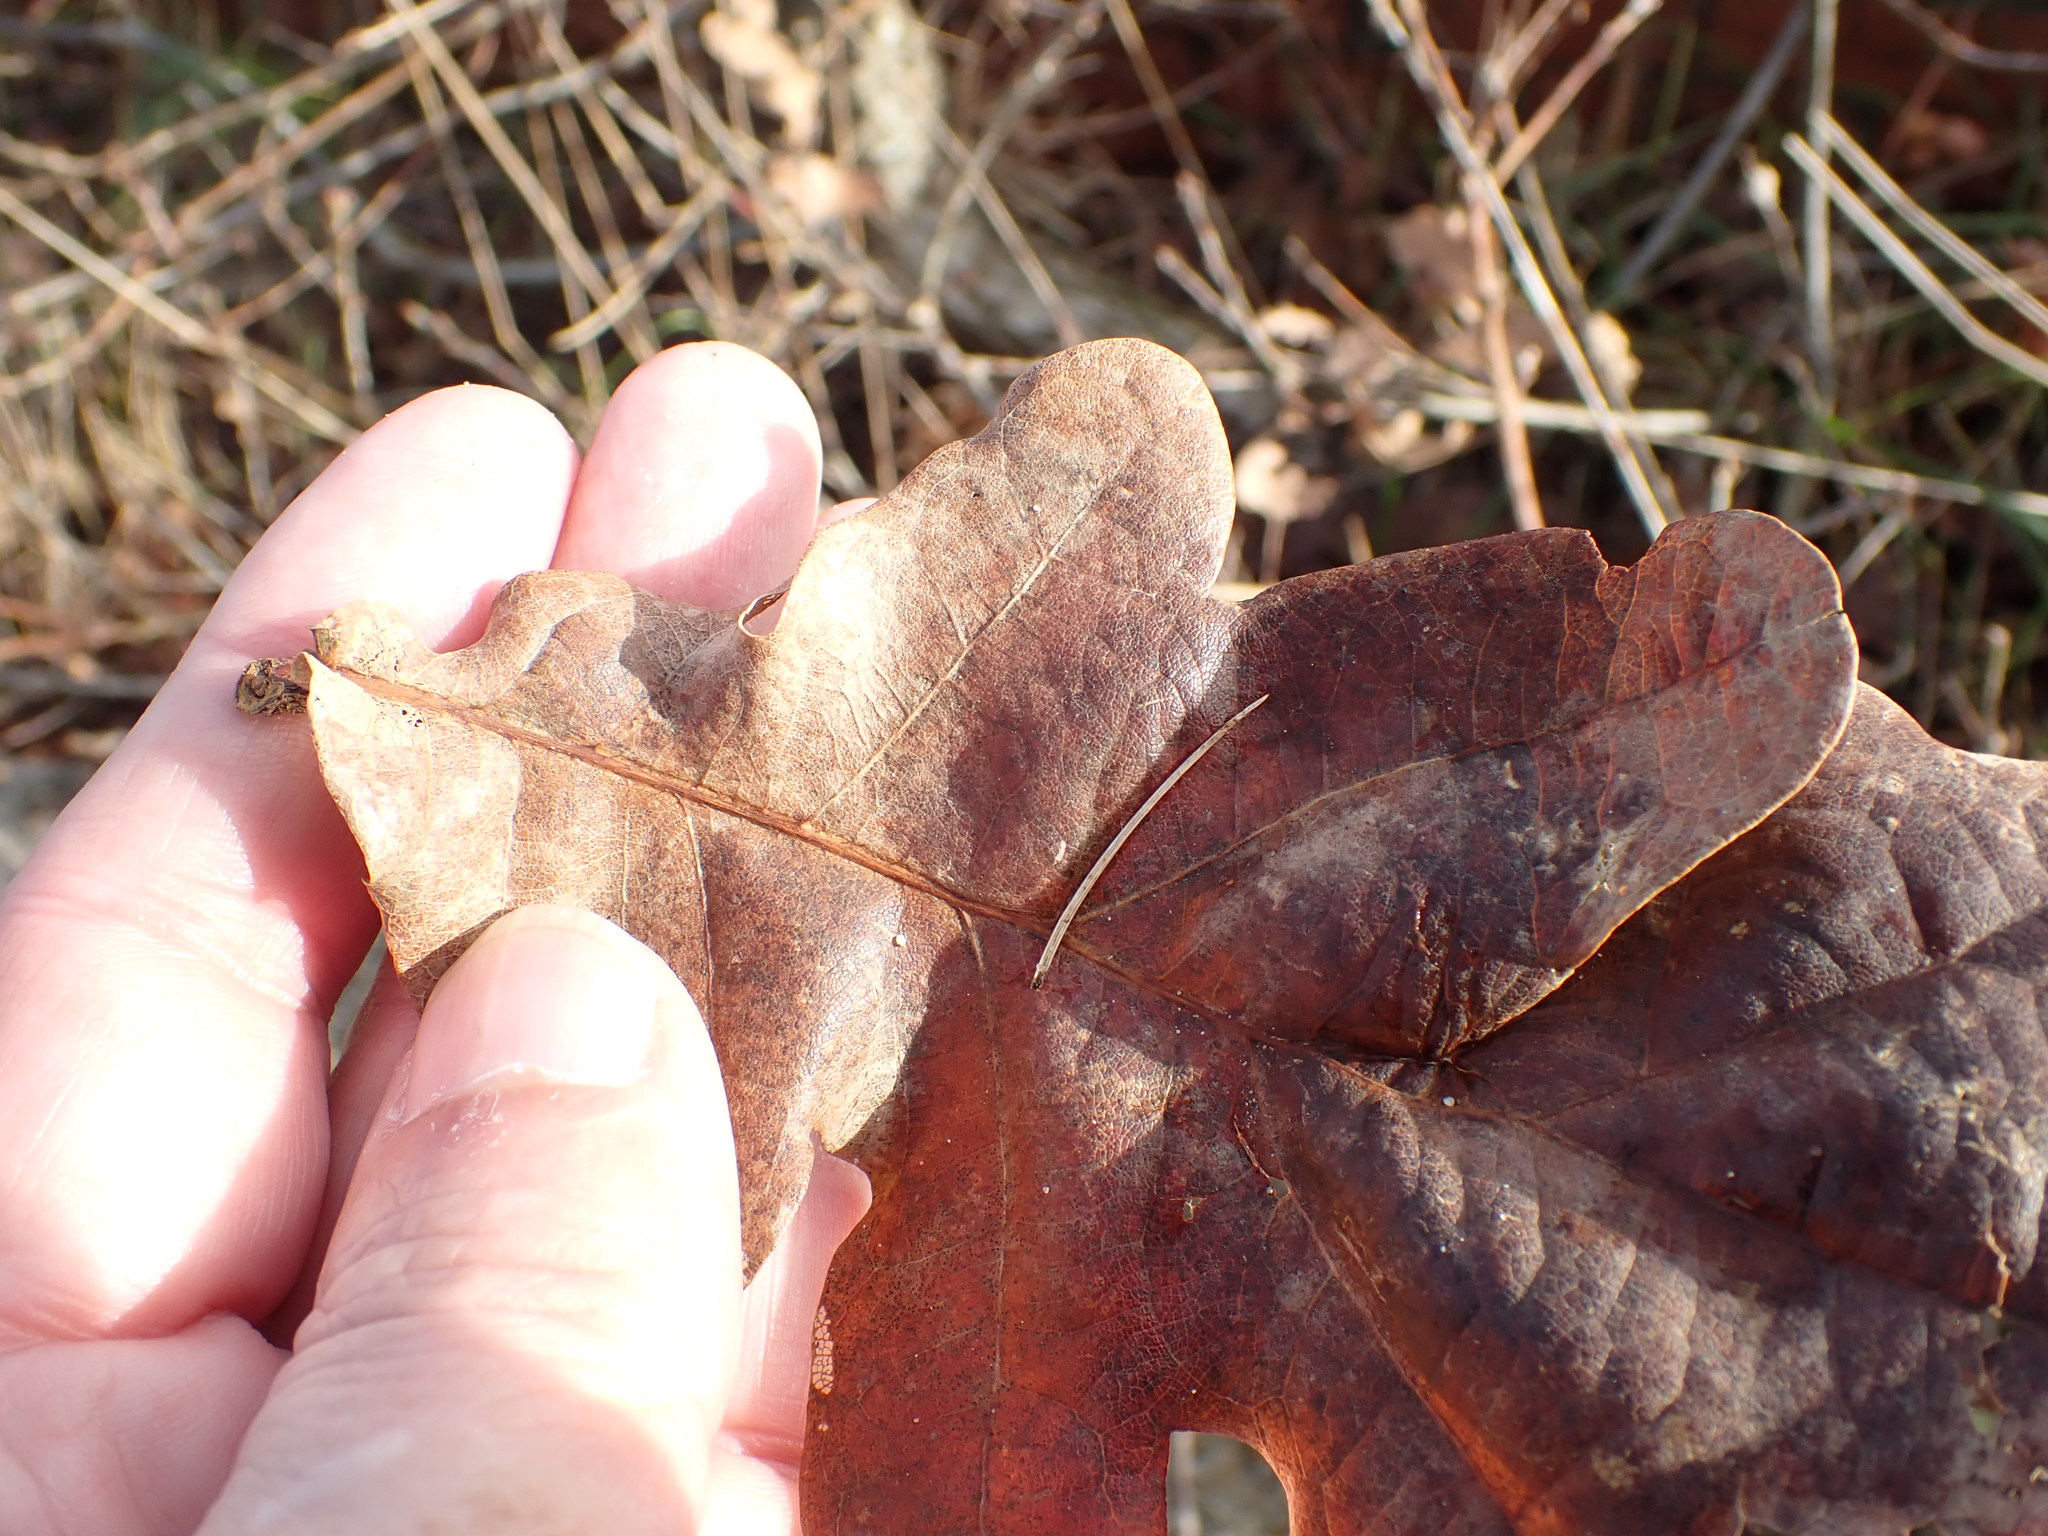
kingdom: Plantae
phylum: Tracheophyta
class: Magnoliopsida
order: Fagales
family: Fagaceae
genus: Quercus
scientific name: Quercus robur
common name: Pedunculate oak
